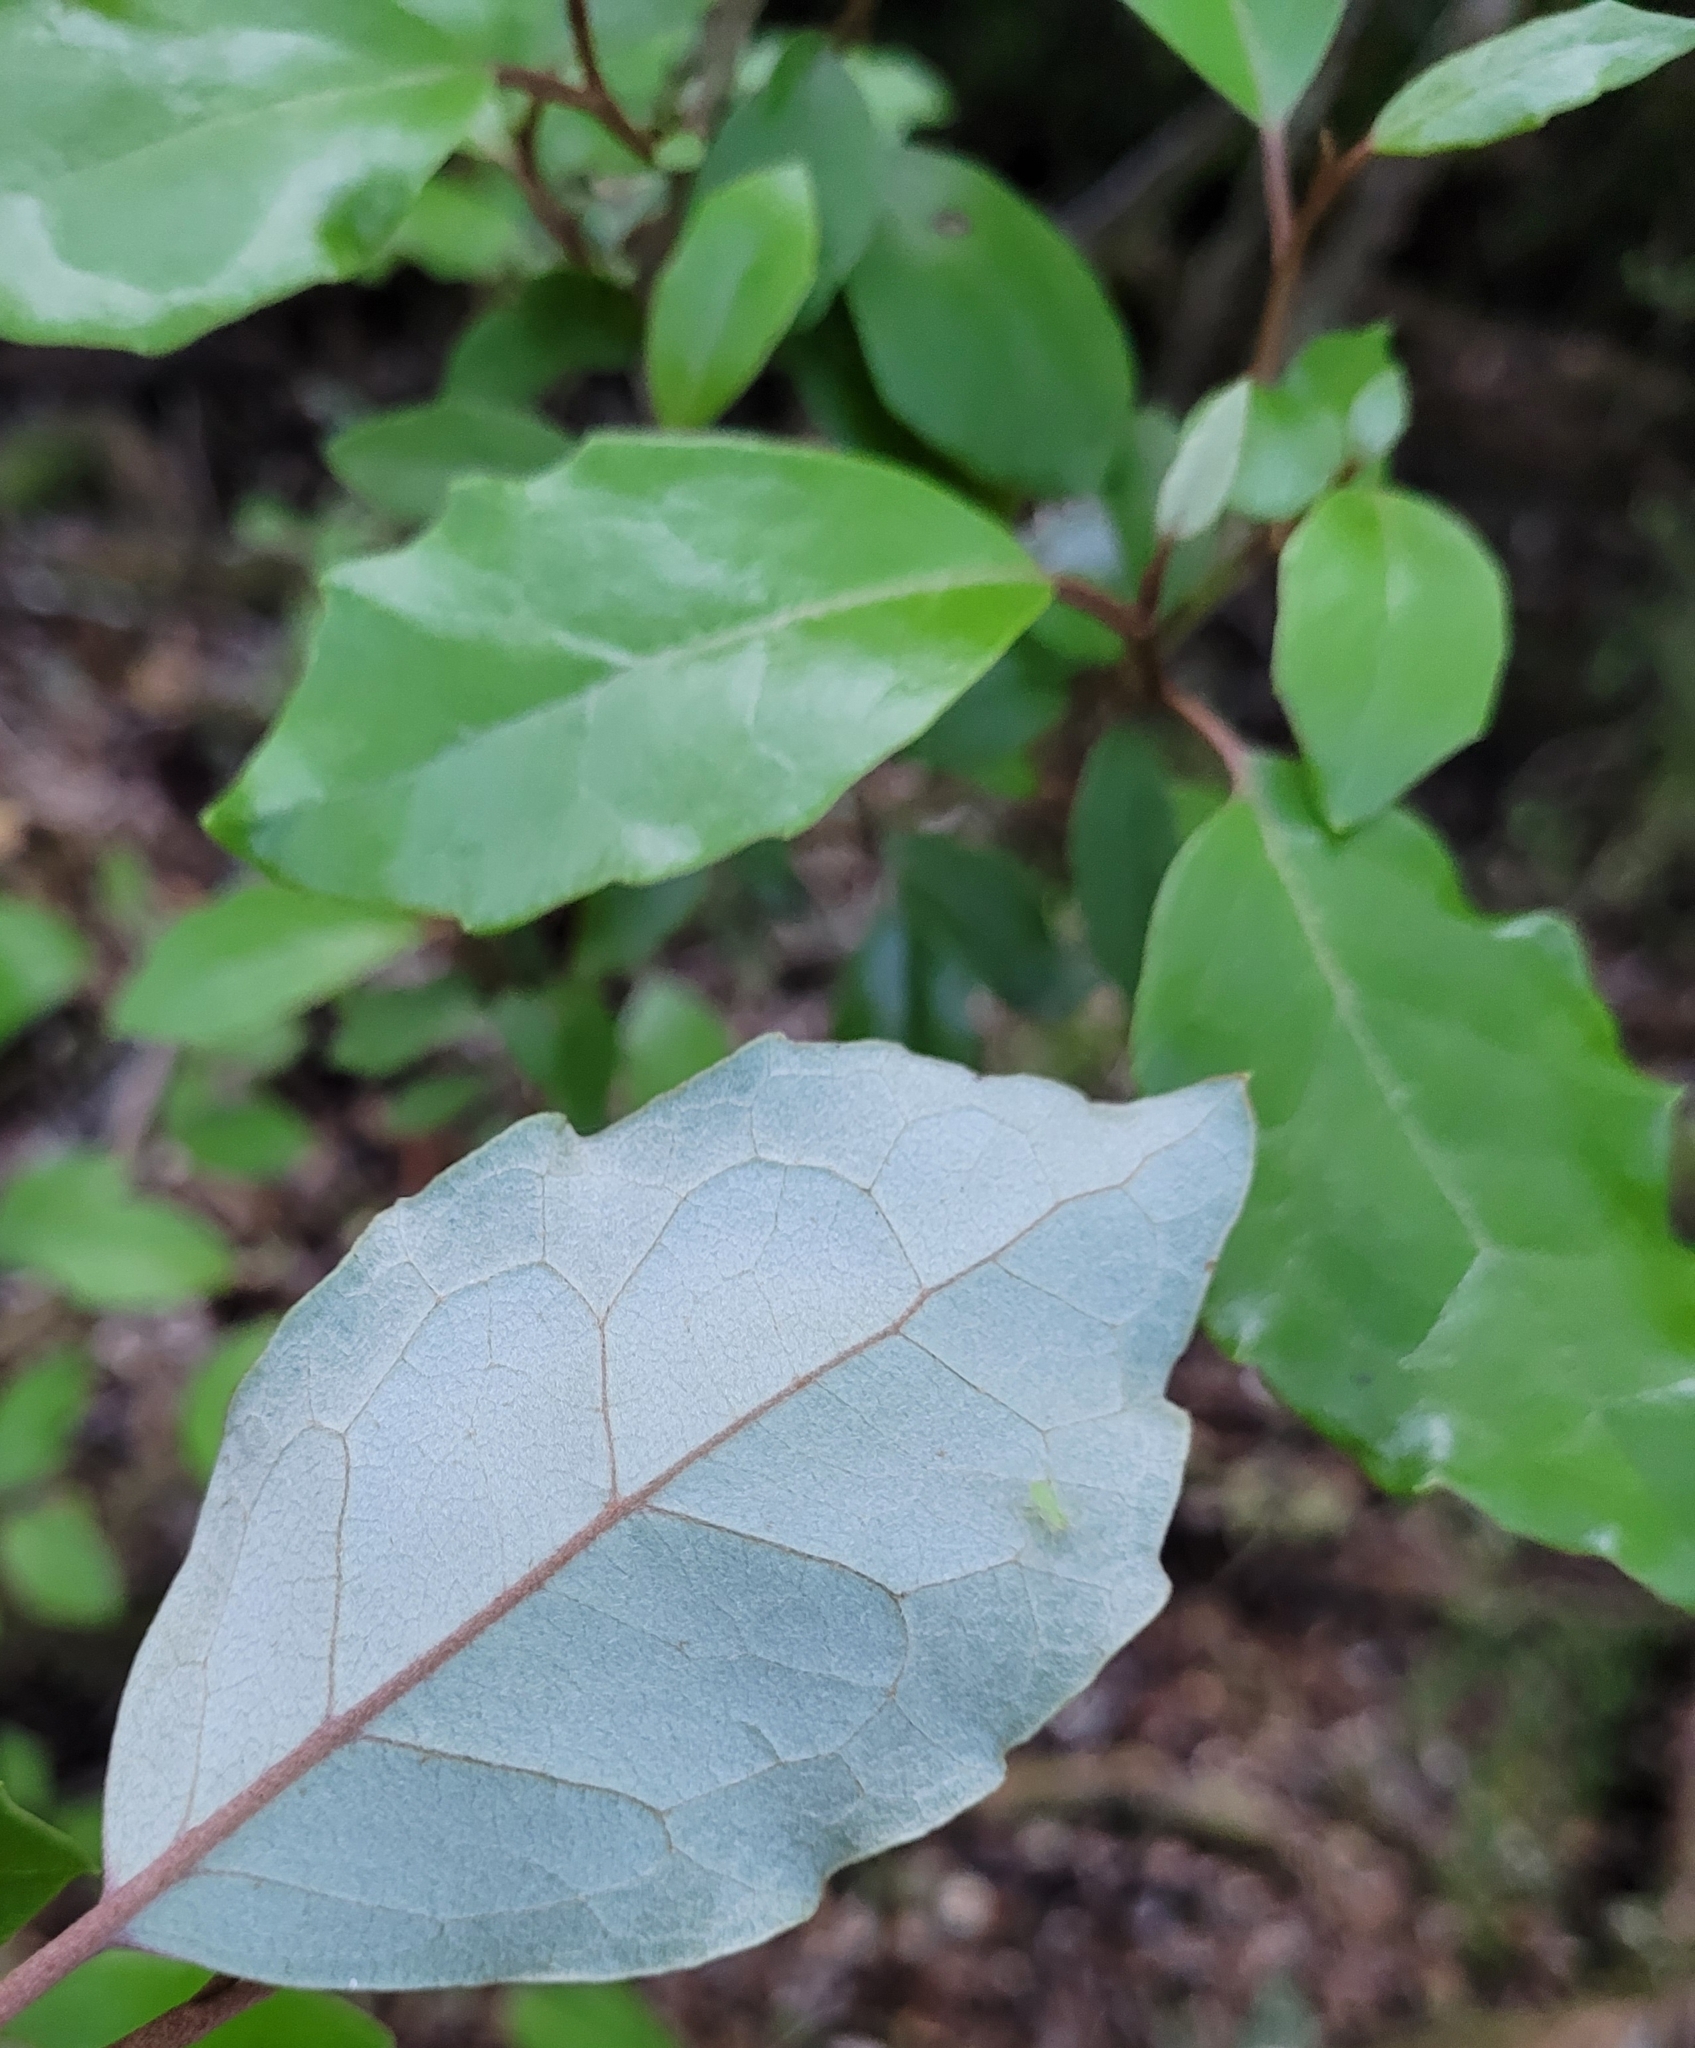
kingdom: Plantae
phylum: Tracheophyta
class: Magnoliopsida
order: Asterales
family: Asteraceae
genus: Olearia
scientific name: Olearia arborescens
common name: Glossy tree daisy
